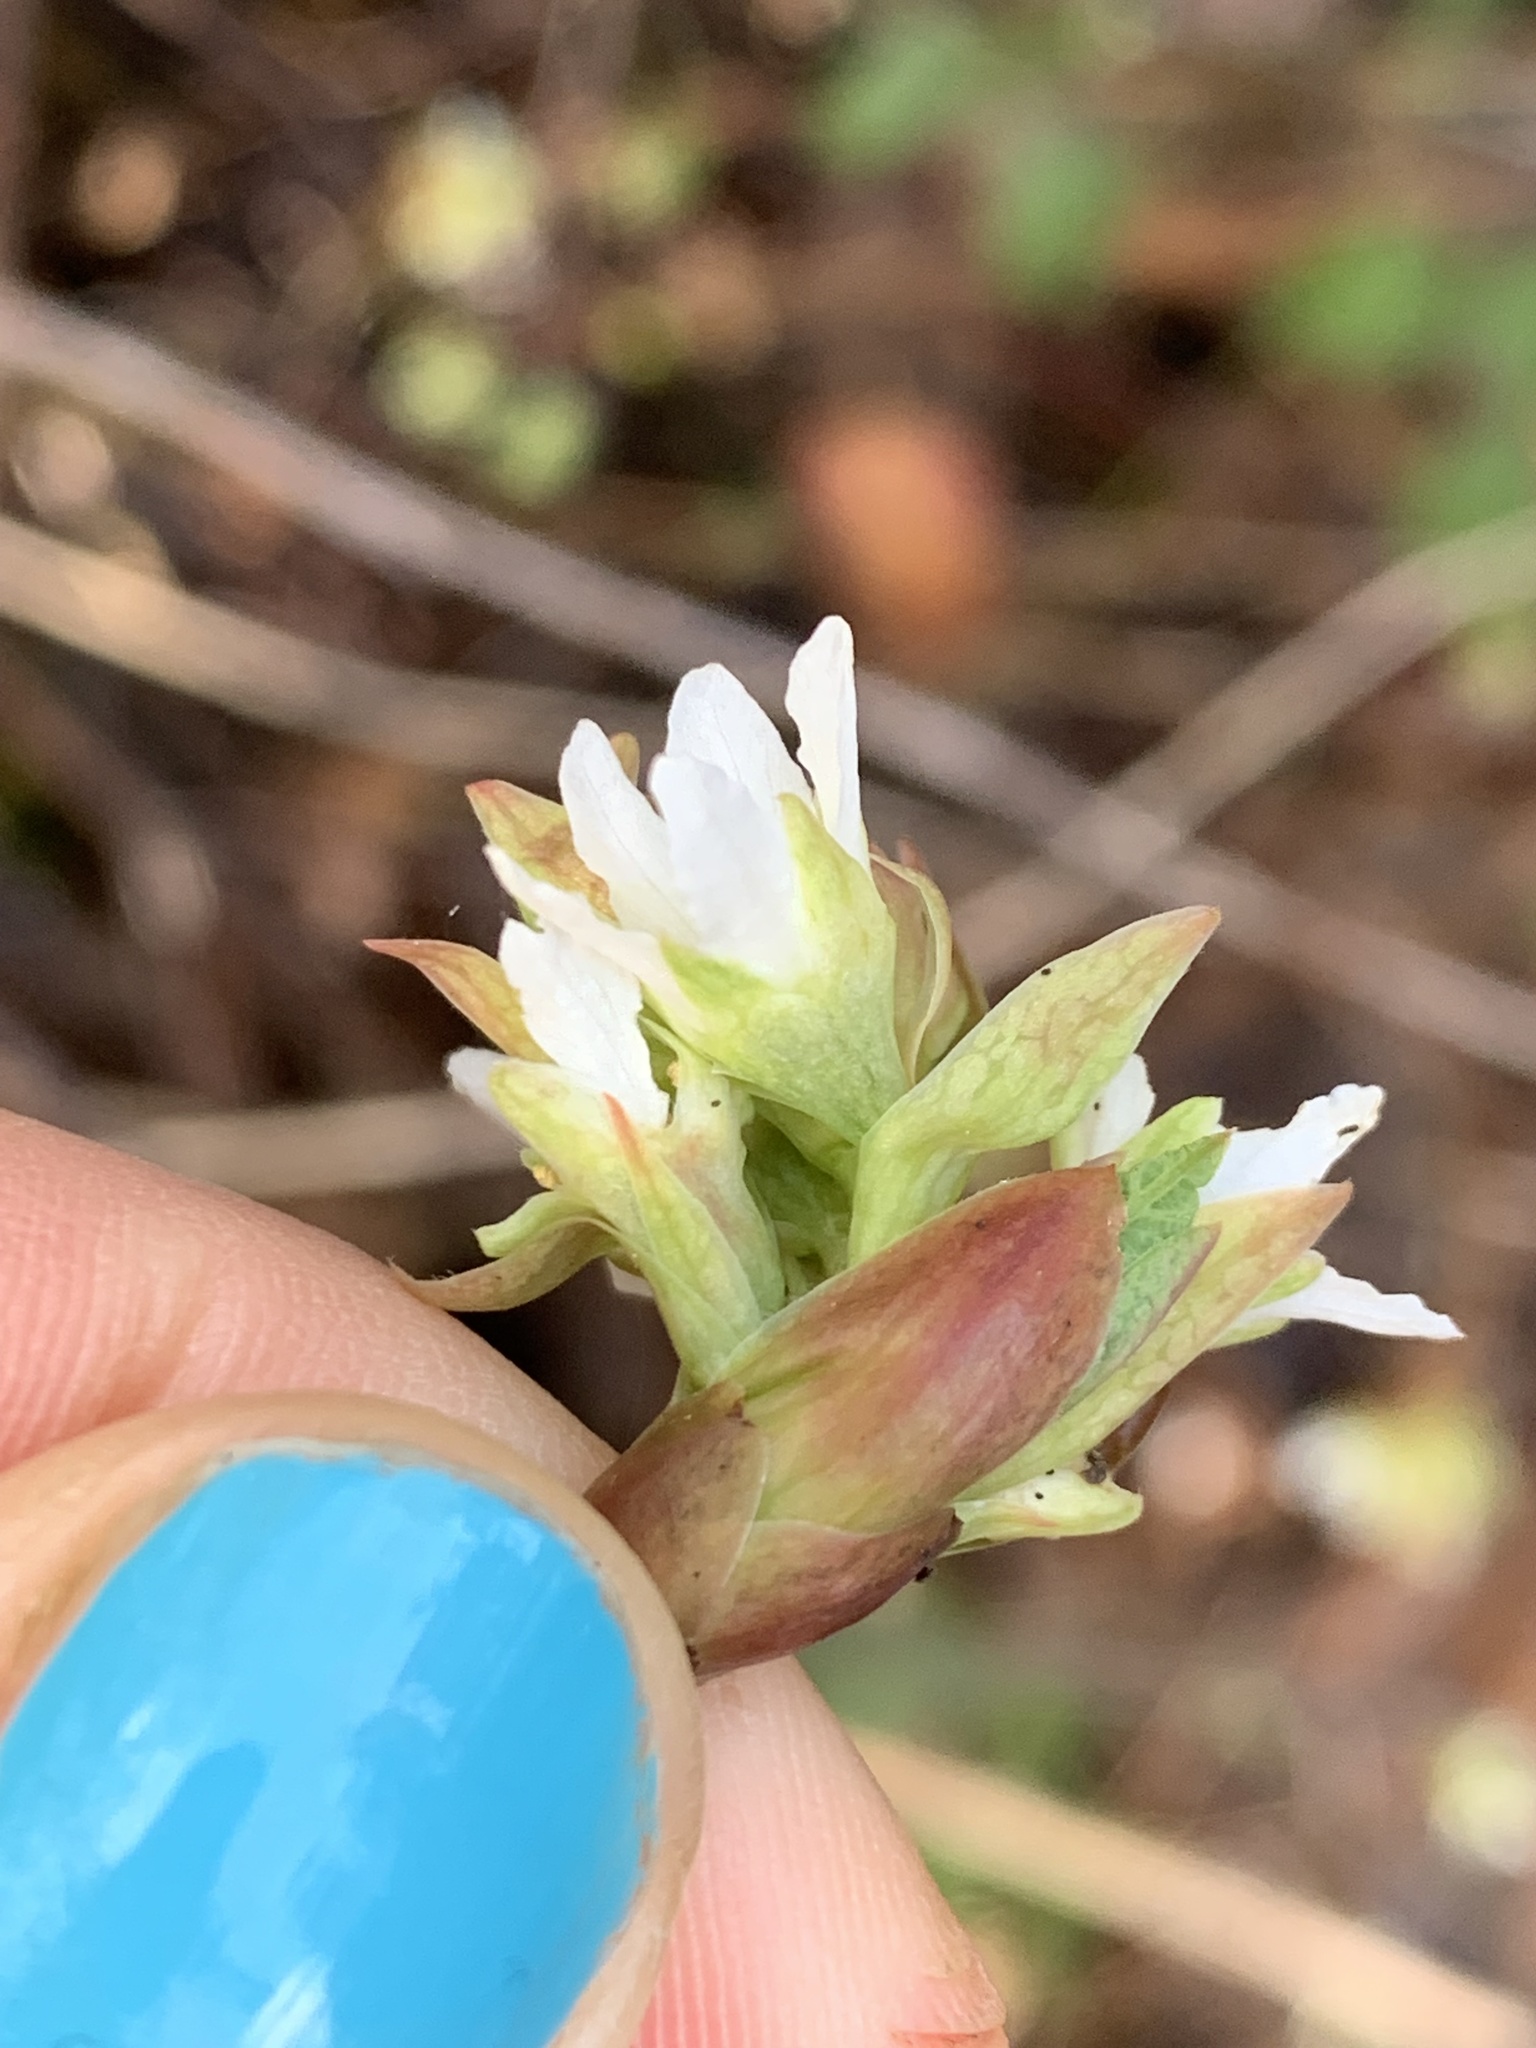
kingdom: Plantae
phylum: Tracheophyta
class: Magnoliopsida
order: Rosales
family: Rosaceae
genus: Oemleria
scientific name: Oemleria cerasiformis
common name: Osoberry
